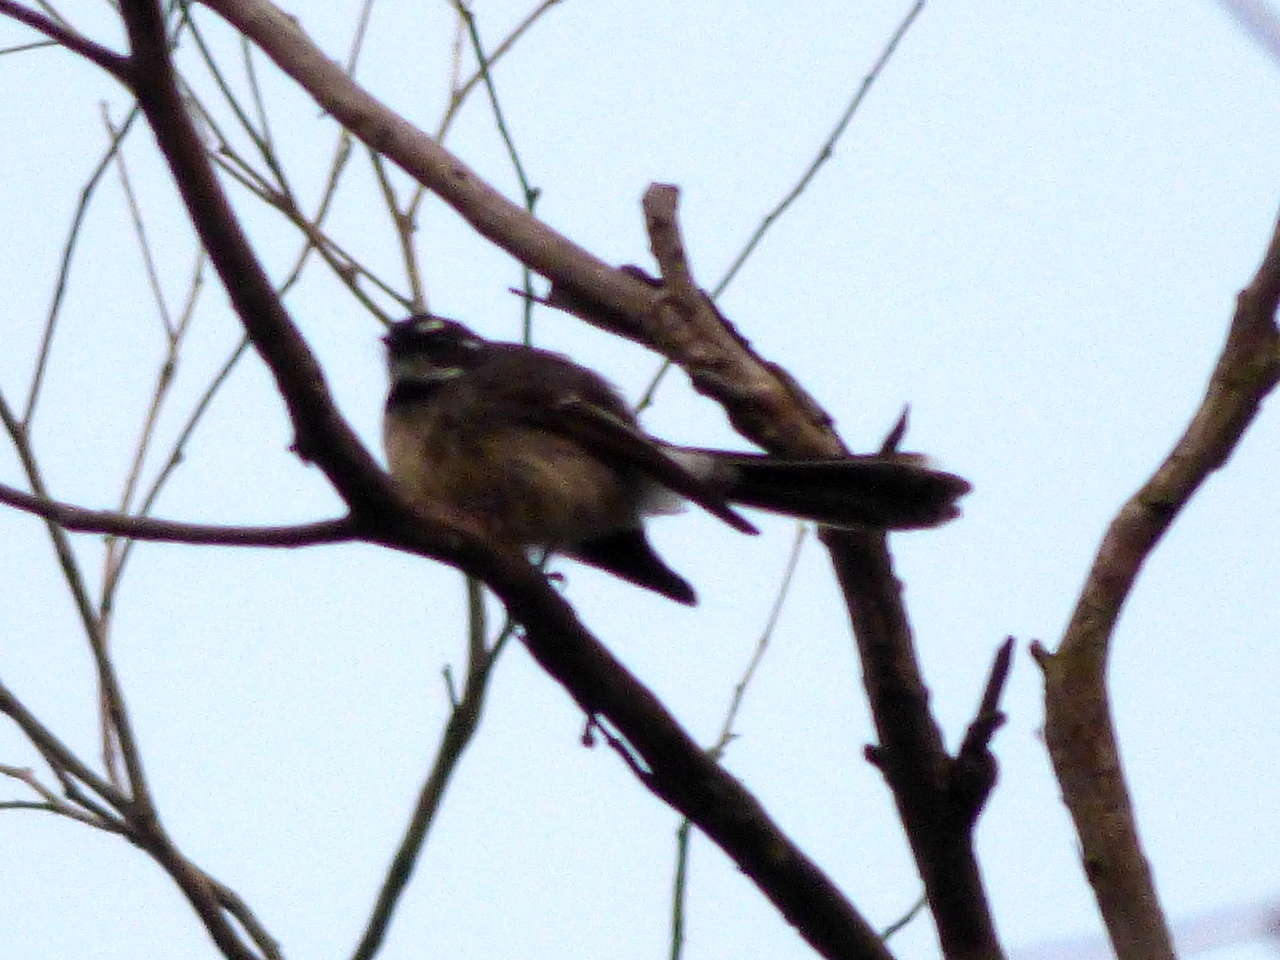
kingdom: Animalia
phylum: Chordata
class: Aves
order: Passeriformes
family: Rhipiduridae
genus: Rhipidura
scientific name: Rhipidura albiscapa
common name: Grey fantail
